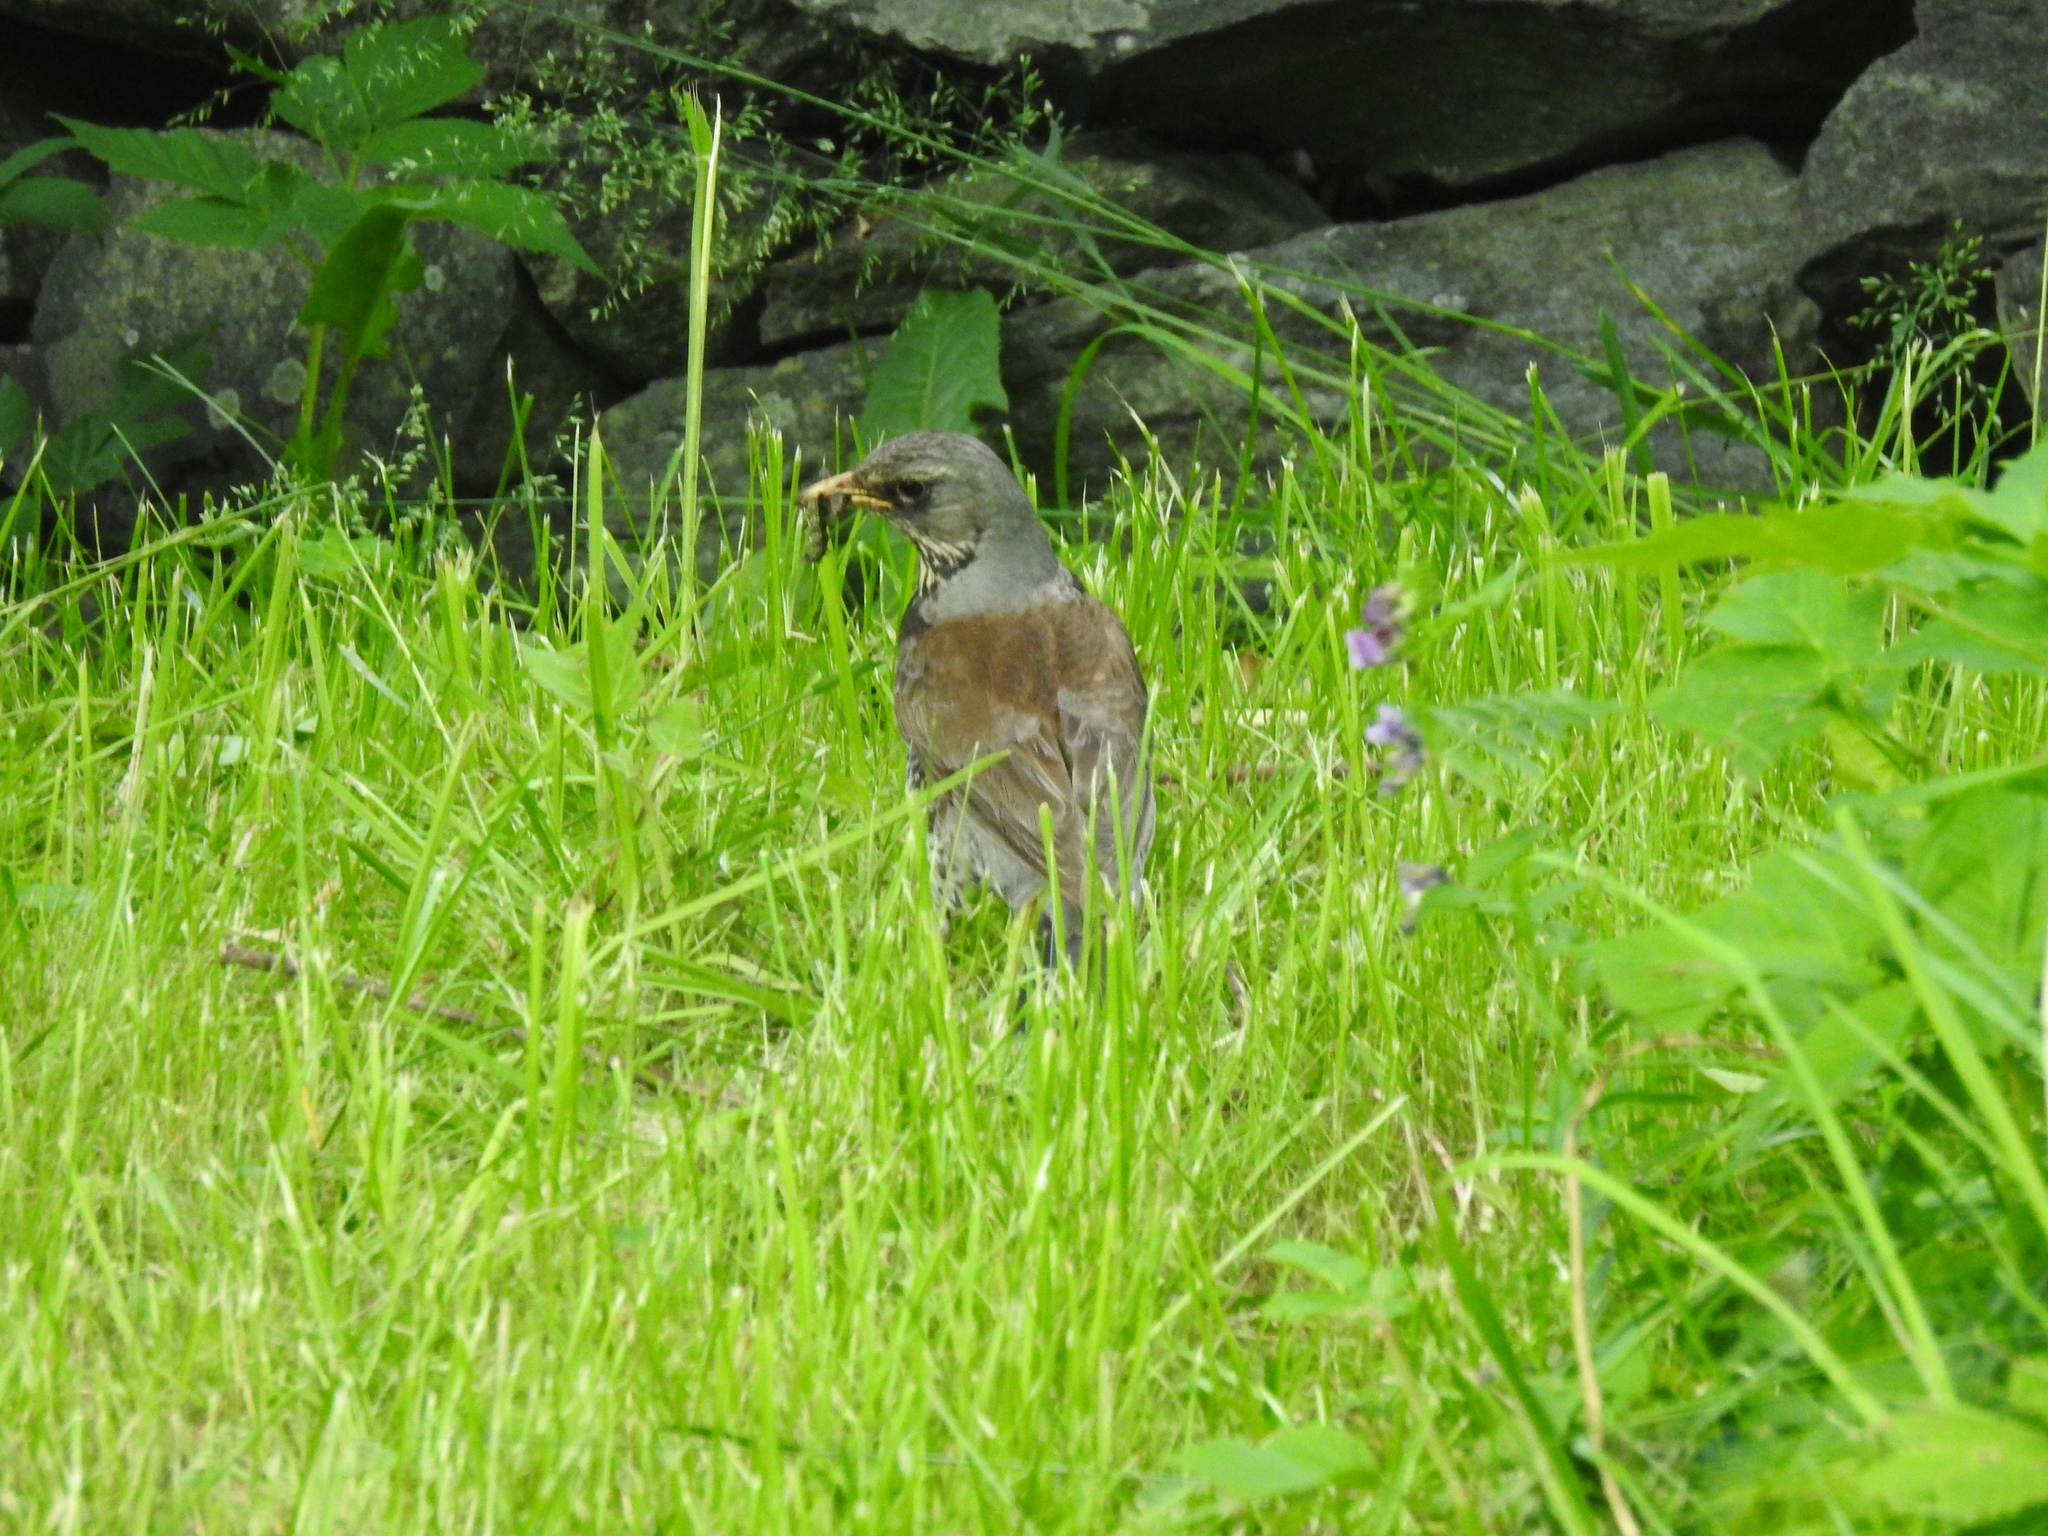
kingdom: Animalia
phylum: Chordata
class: Aves
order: Passeriformes
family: Turdidae
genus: Turdus
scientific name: Turdus pilaris
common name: Fieldfare
